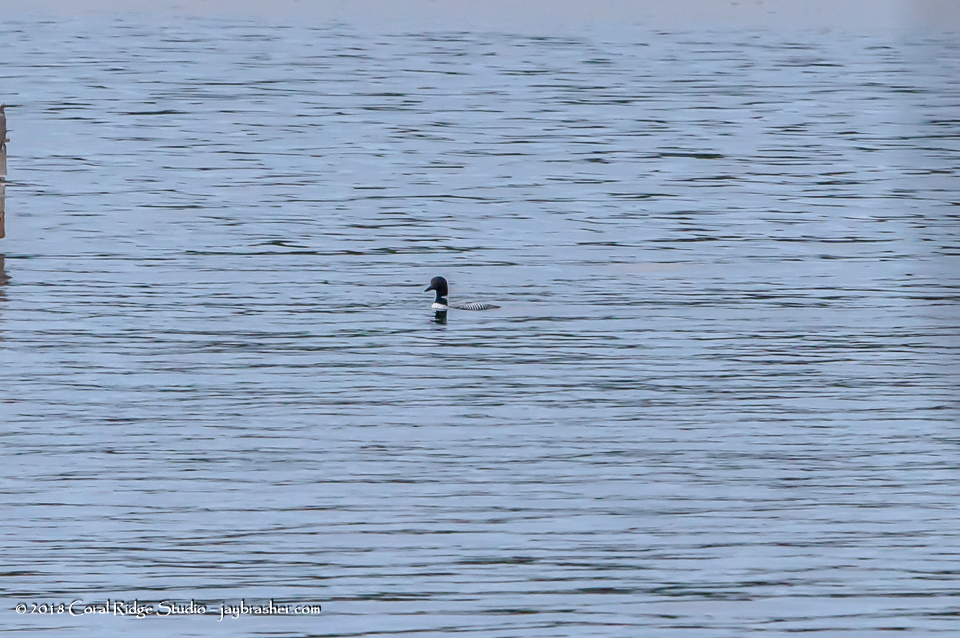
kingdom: Animalia
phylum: Chordata
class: Aves
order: Gaviiformes
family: Gaviidae
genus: Gavia
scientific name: Gavia immer
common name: Common loon
